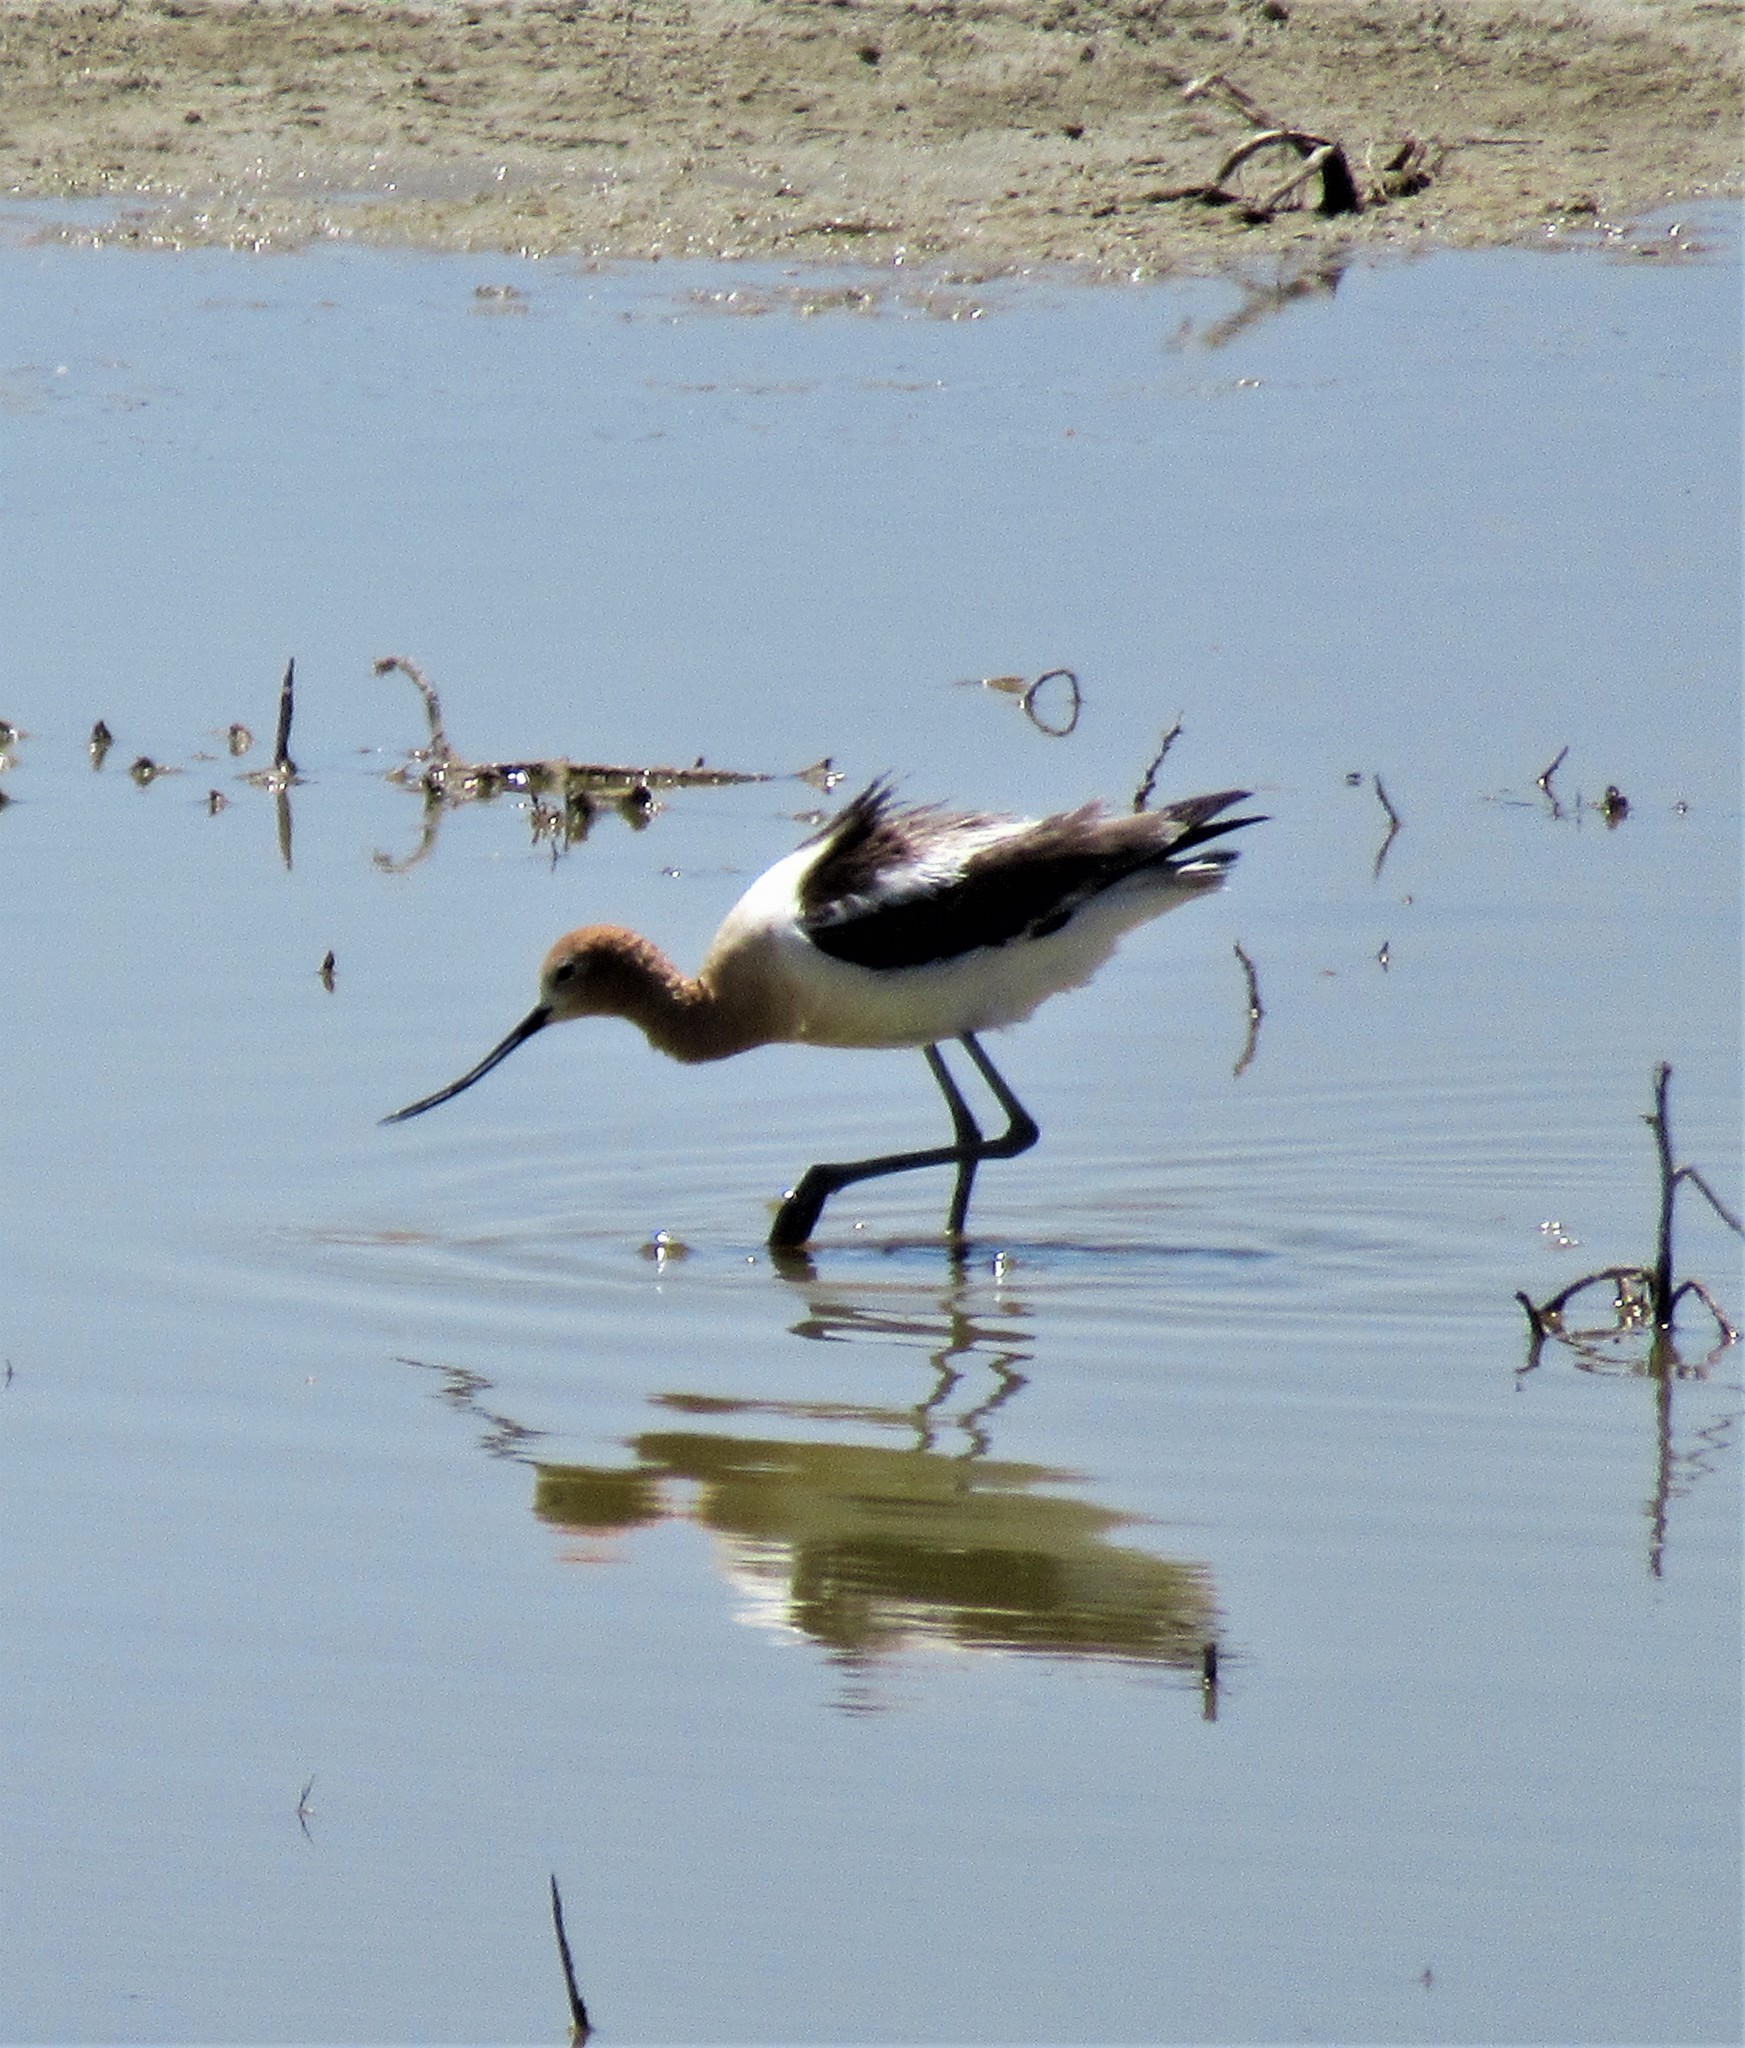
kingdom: Animalia
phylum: Chordata
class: Aves
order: Charadriiformes
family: Recurvirostridae
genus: Recurvirostra
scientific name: Recurvirostra americana
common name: American avocet
